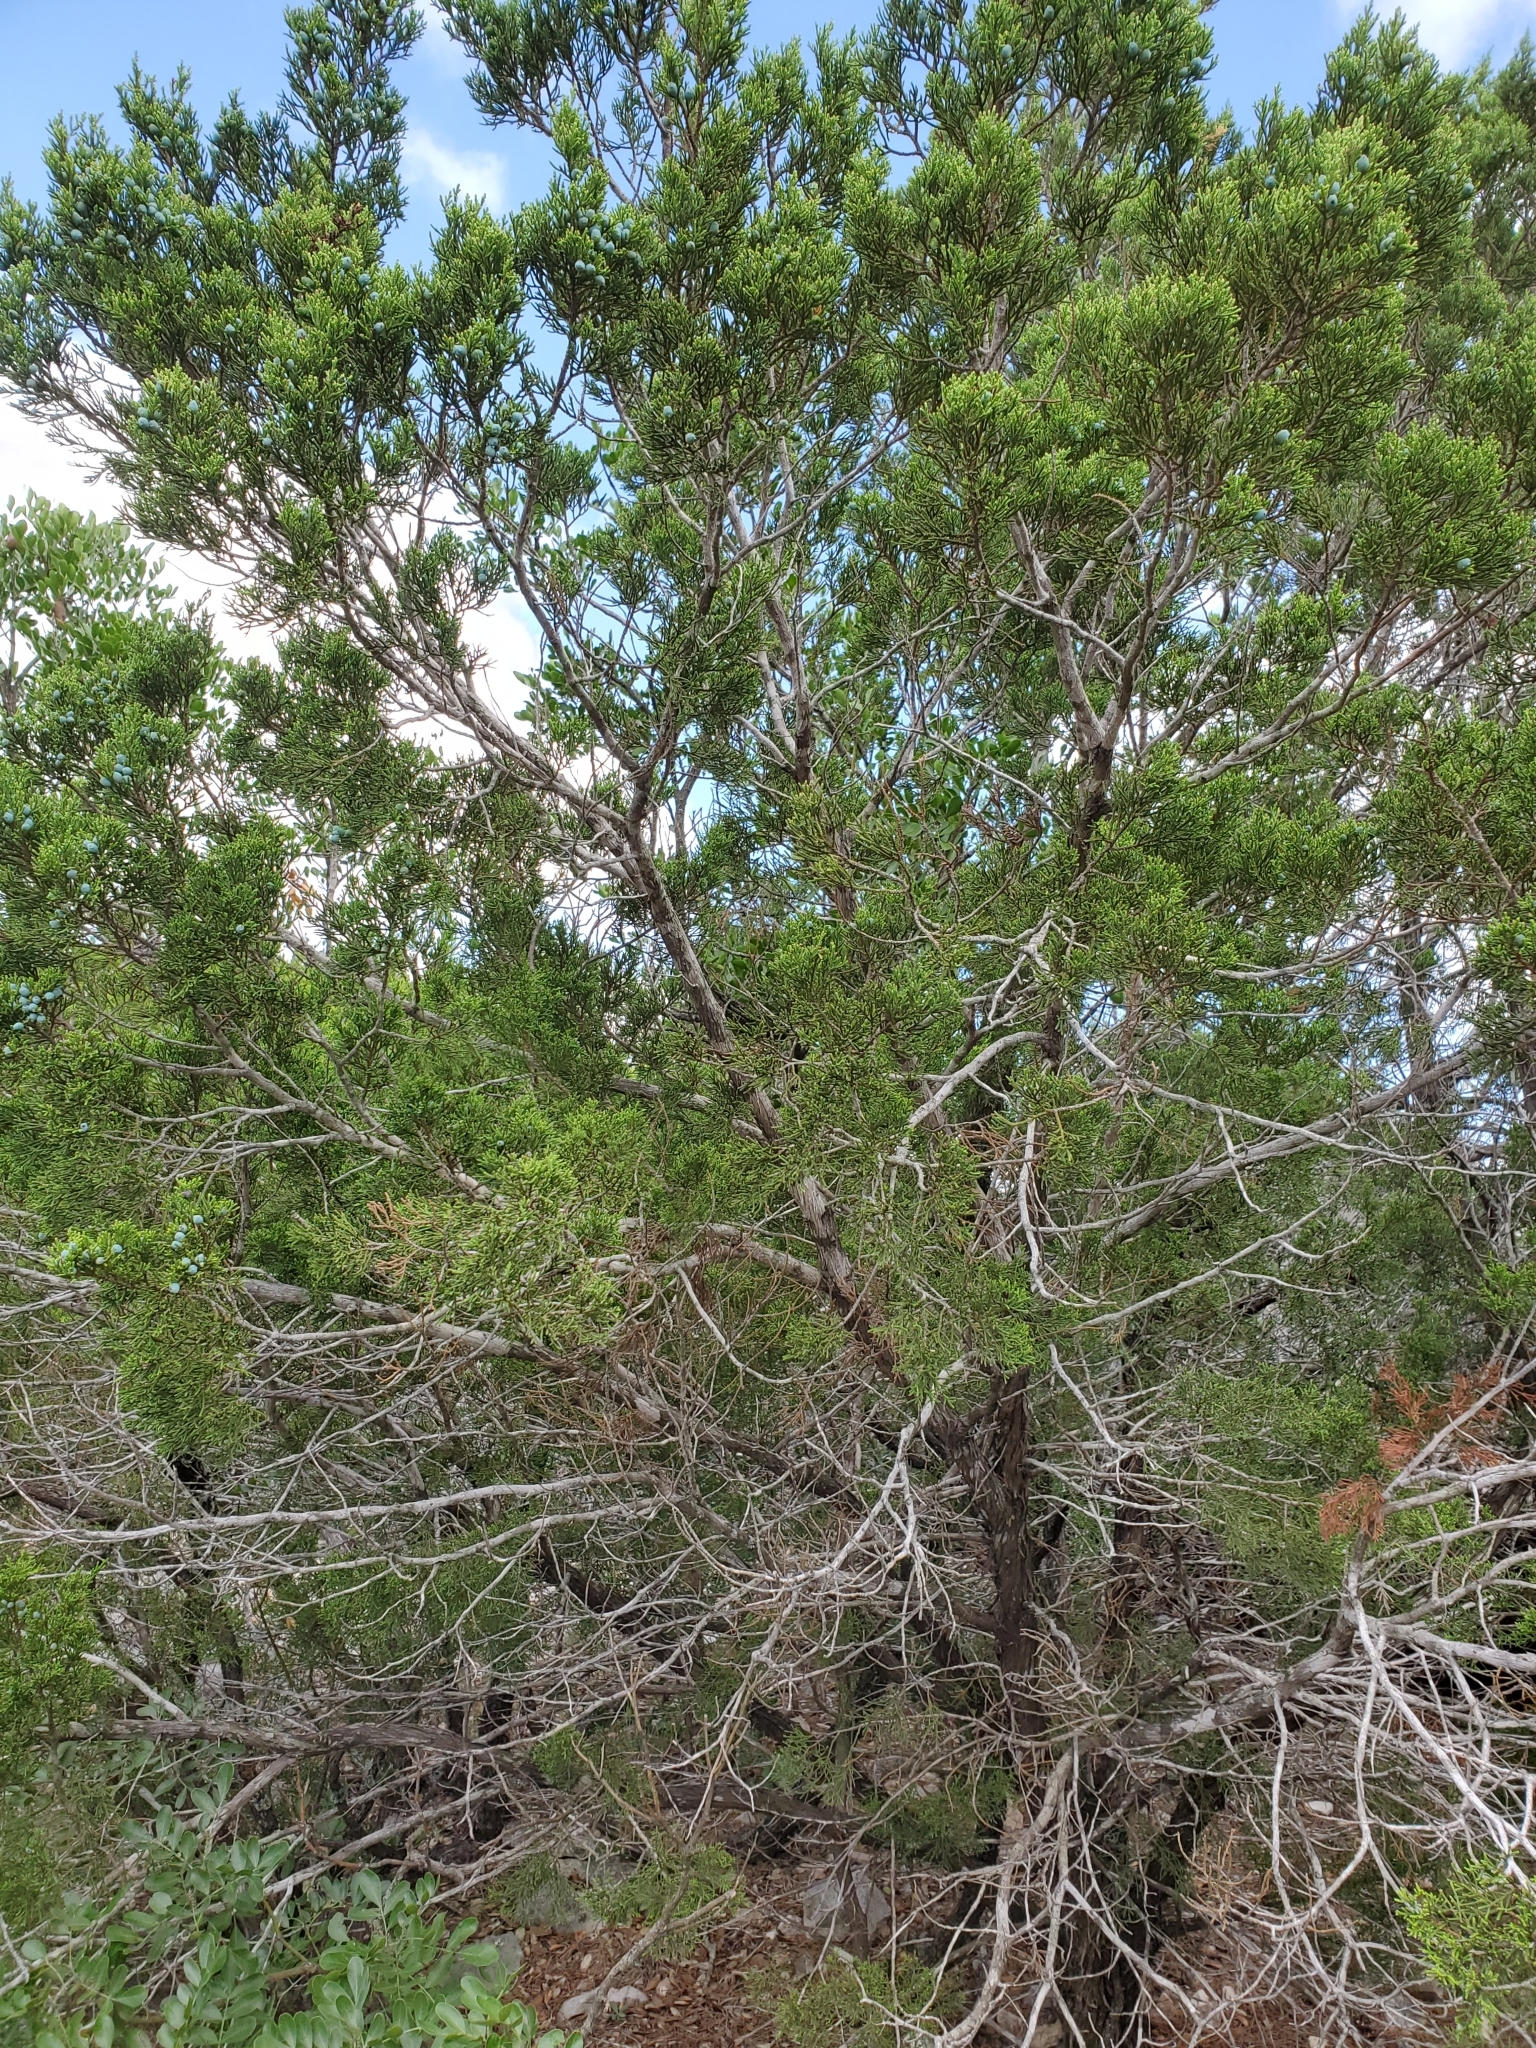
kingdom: Plantae
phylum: Tracheophyta
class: Pinopsida
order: Pinales
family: Cupressaceae
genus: Juniperus
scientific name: Juniperus ashei
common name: Mexican juniper
